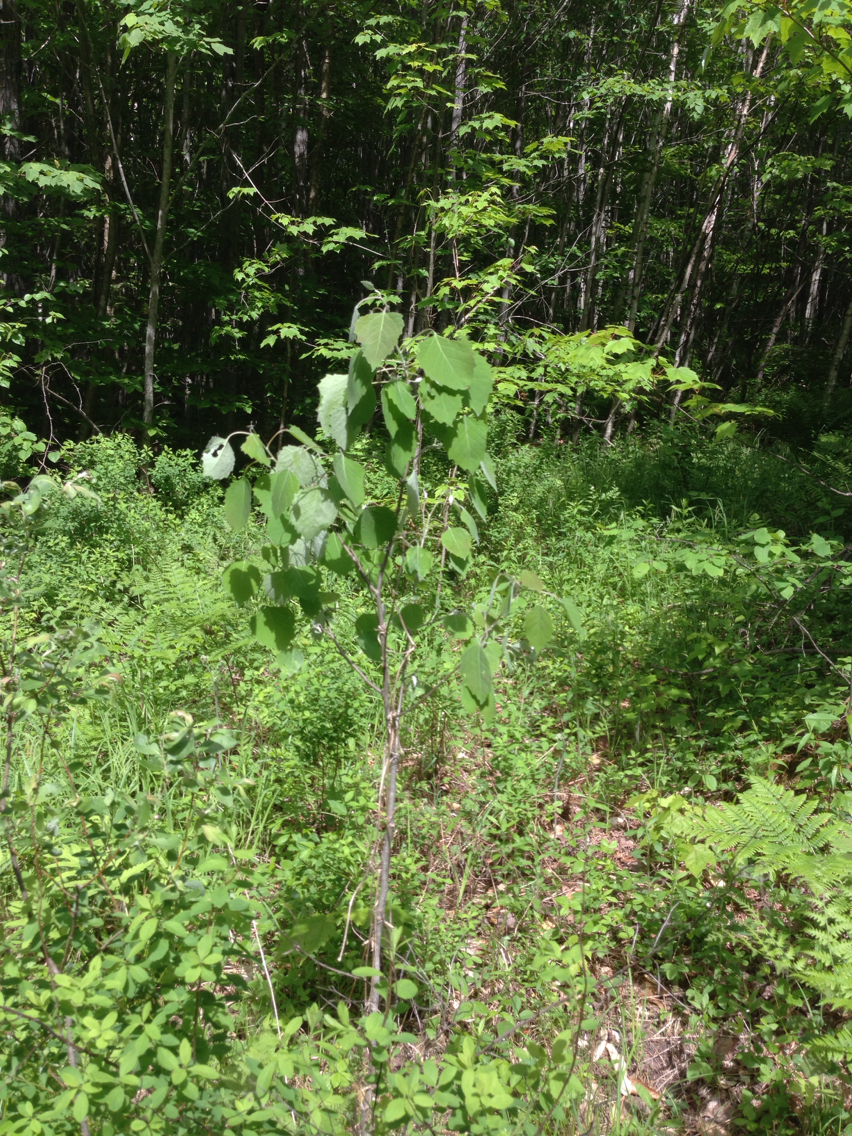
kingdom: Plantae
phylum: Tracheophyta
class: Magnoliopsida
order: Malpighiales
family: Salicaceae
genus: Populus
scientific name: Populus grandidentata
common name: Bigtooth aspen
